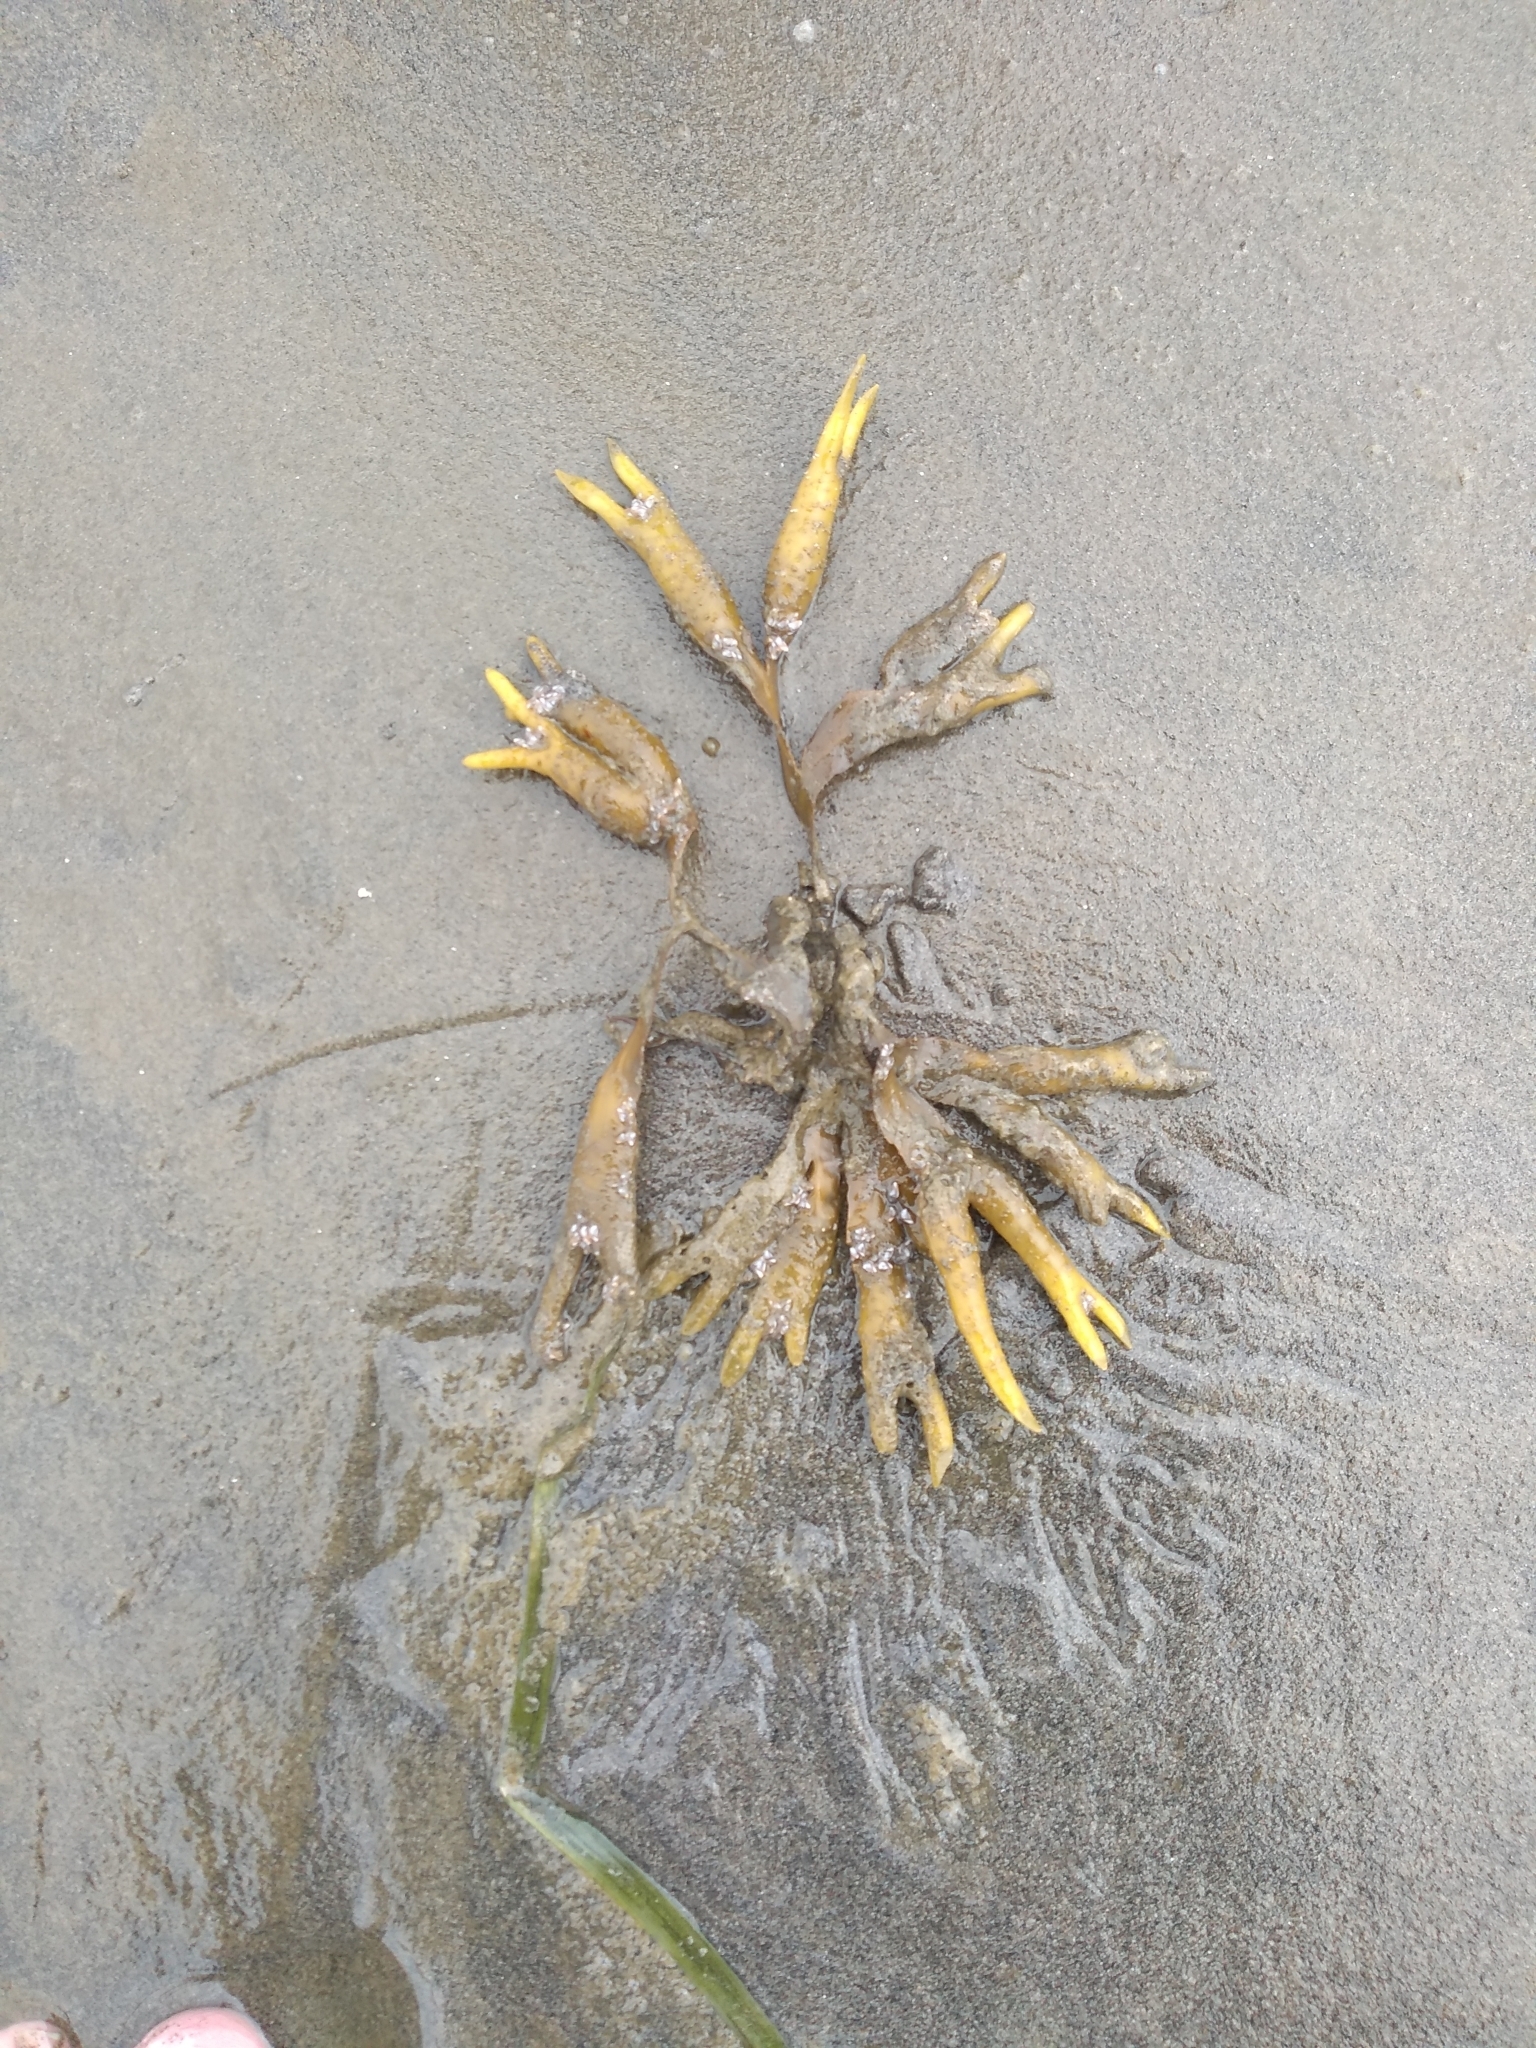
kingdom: Chromista
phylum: Ochrophyta
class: Phaeophyceae
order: Fucales
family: Fucaceae
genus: Fucus
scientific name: Fucus distichus
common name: Rockweed
